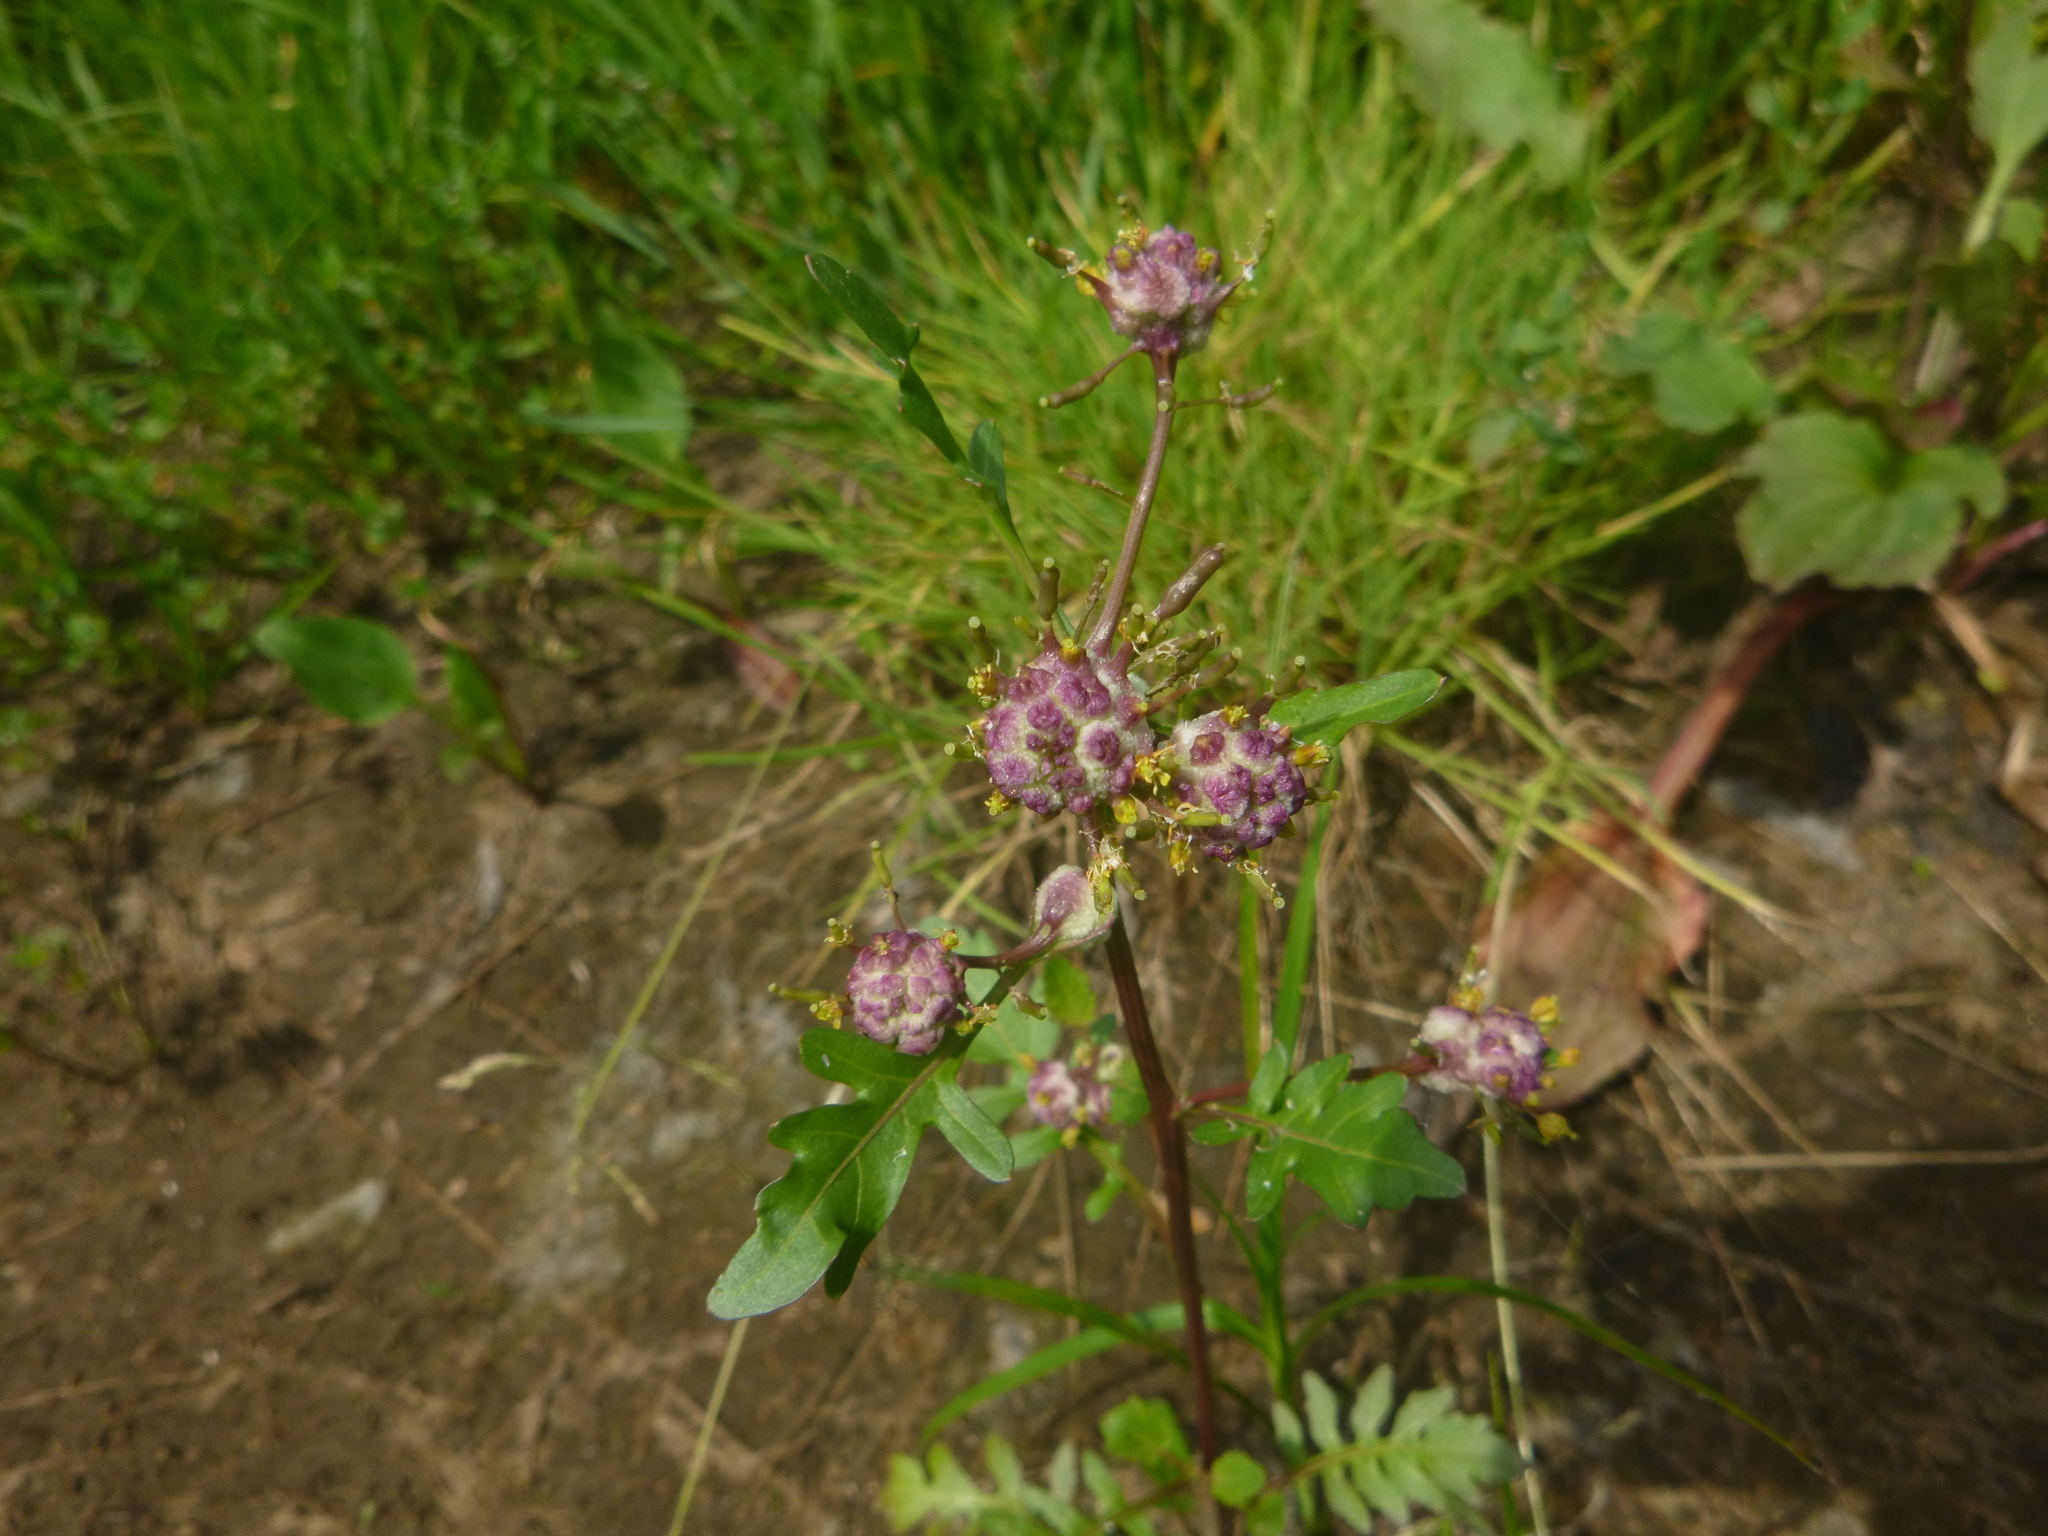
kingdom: Animalia
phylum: Arthropoda
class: Insecta
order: Diptera
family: Cecidomyiidae
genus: Dasineura
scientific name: Dasineura sisymbrii
